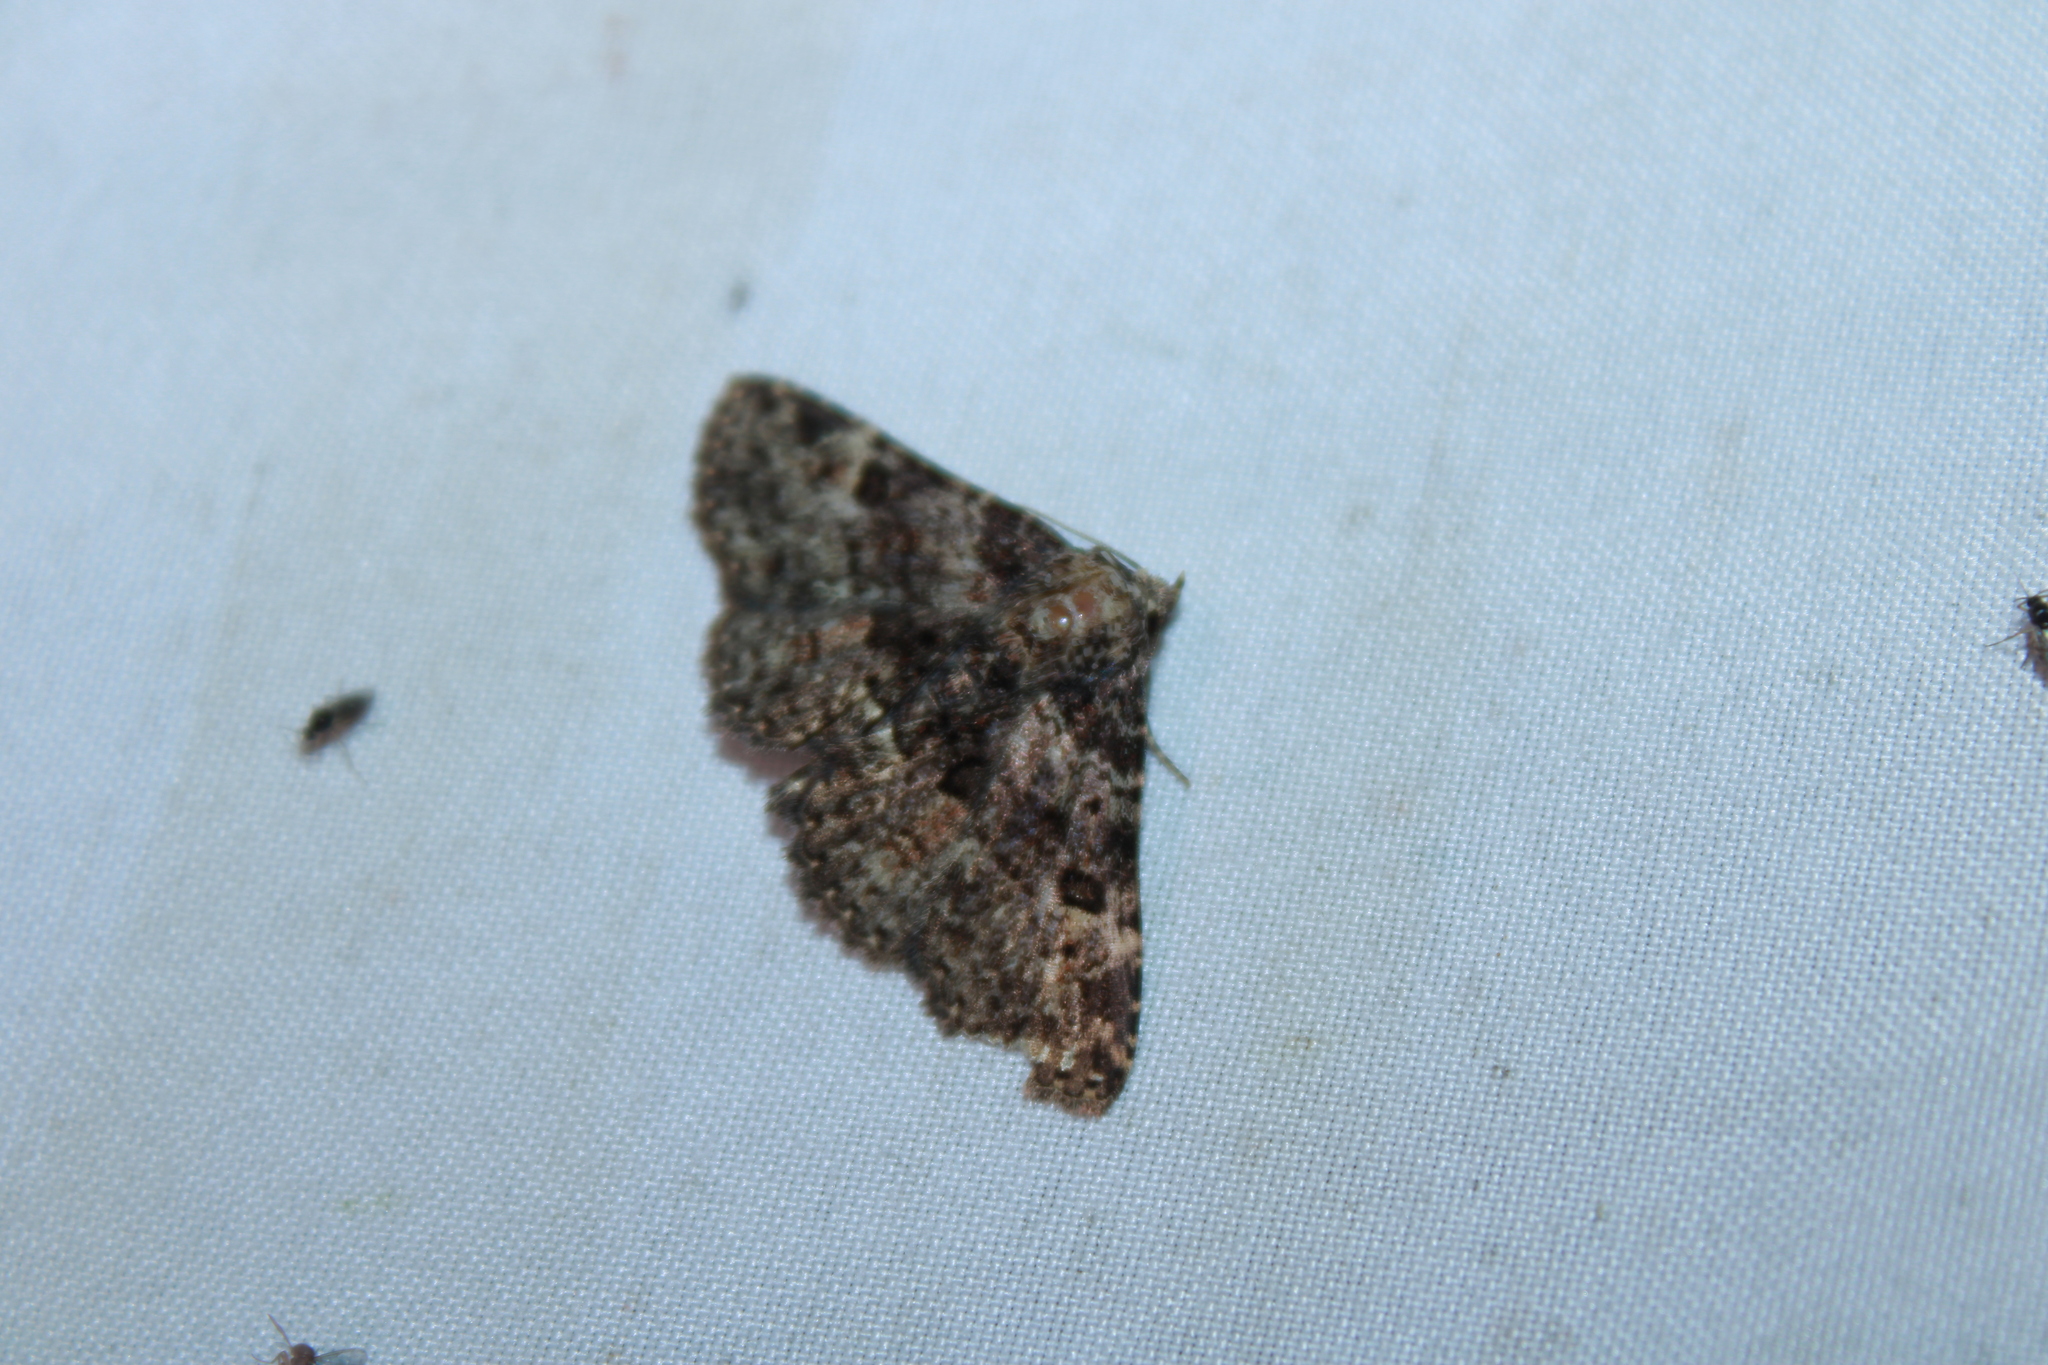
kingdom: Animalia
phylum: Arthropoda
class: Insecta
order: Lepidoptera
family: Erebidae
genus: Metalectra
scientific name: Metalectra discalis
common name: Common fungus moth
